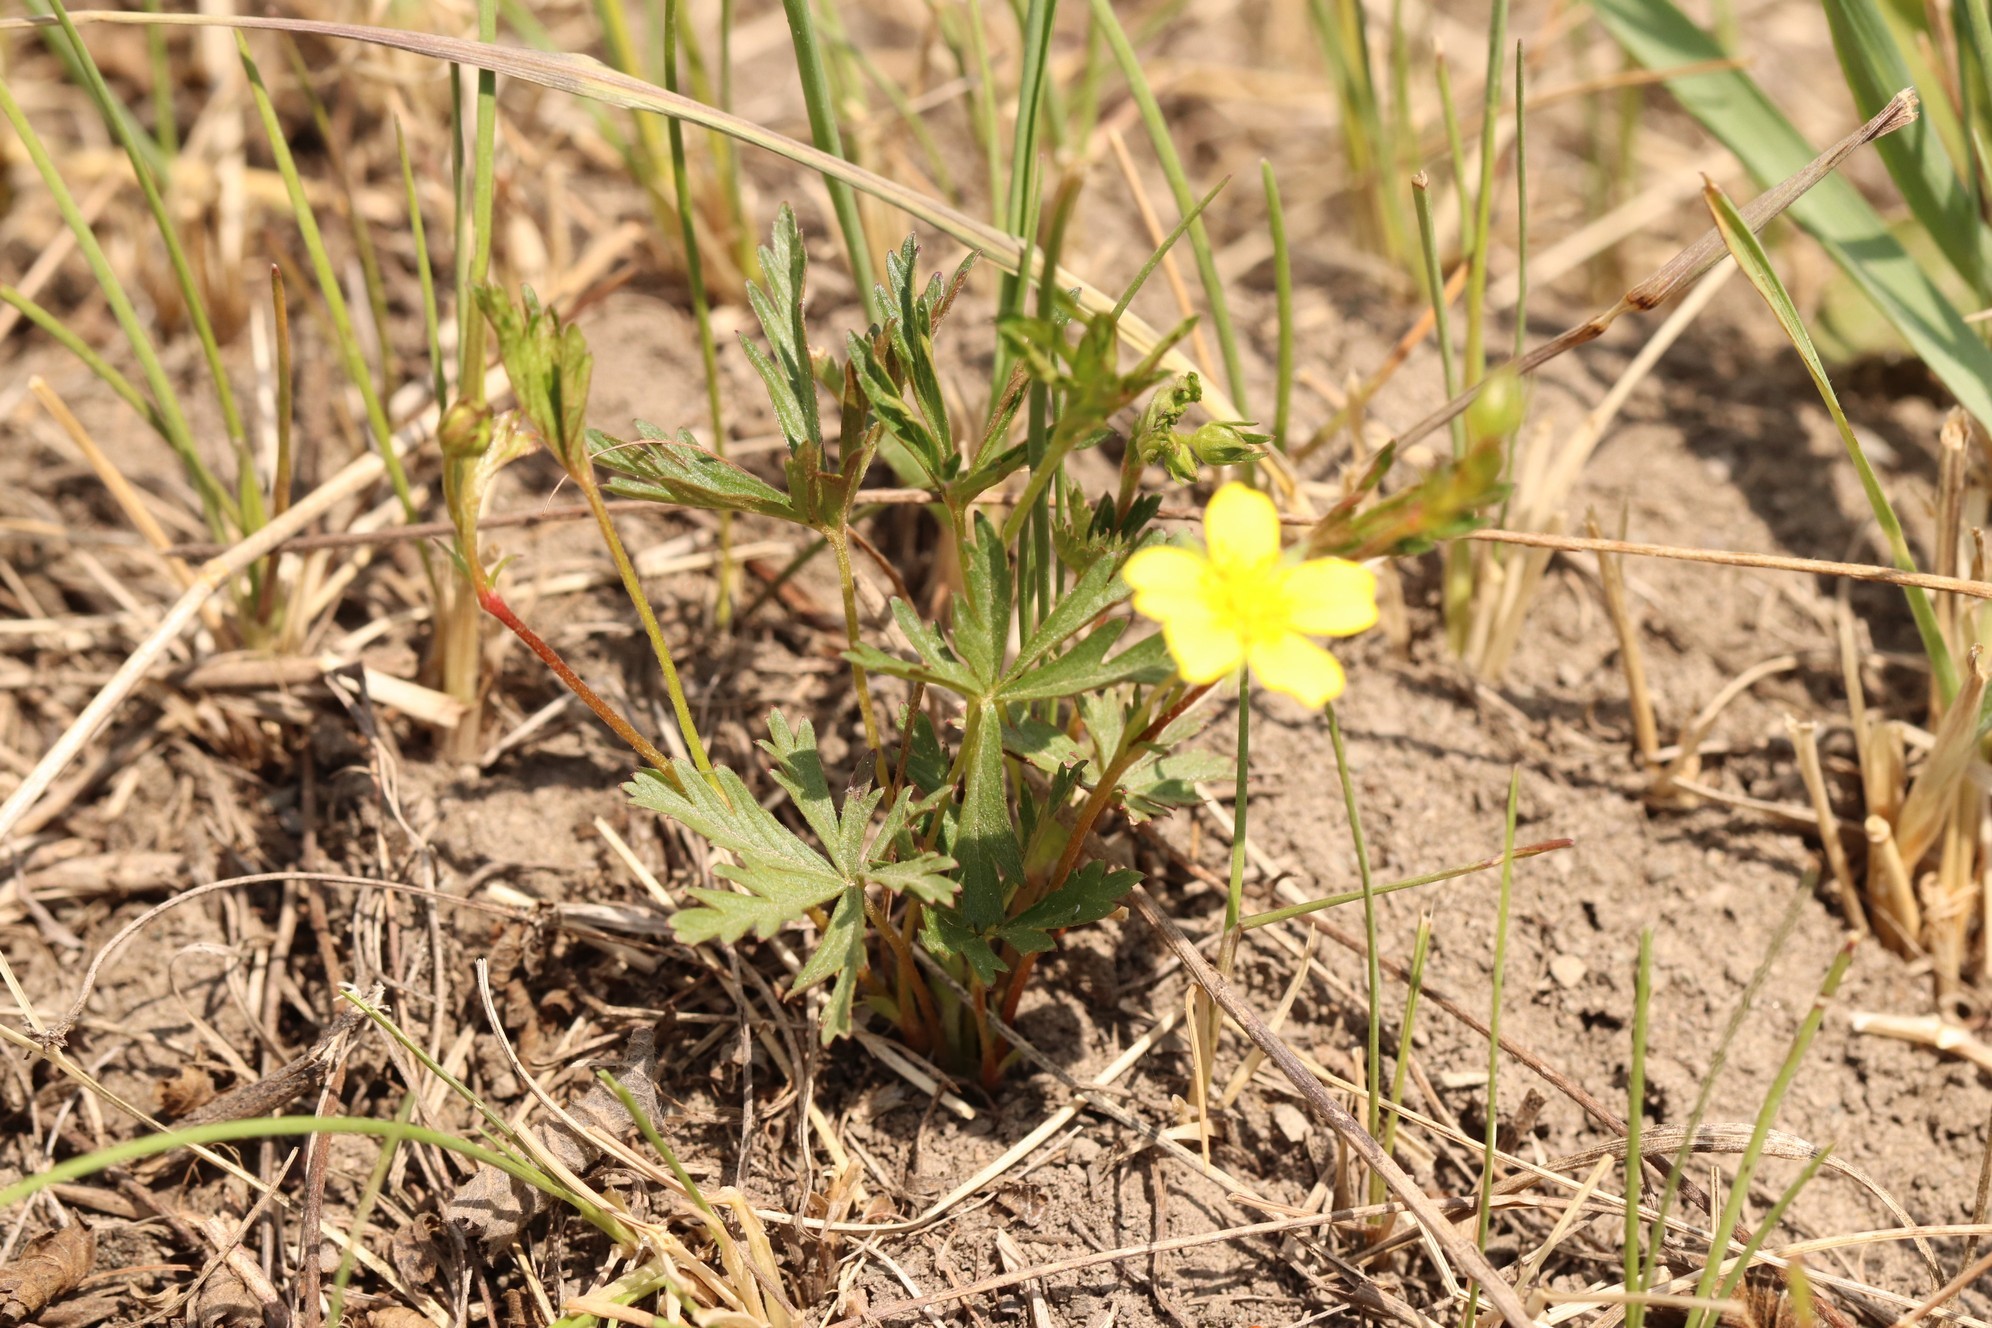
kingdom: Plantae
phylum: Tracheophyta
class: Magnoliopsida
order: Rosales
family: Rosaceae
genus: Potentilla
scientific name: Potentilla flagellaris
